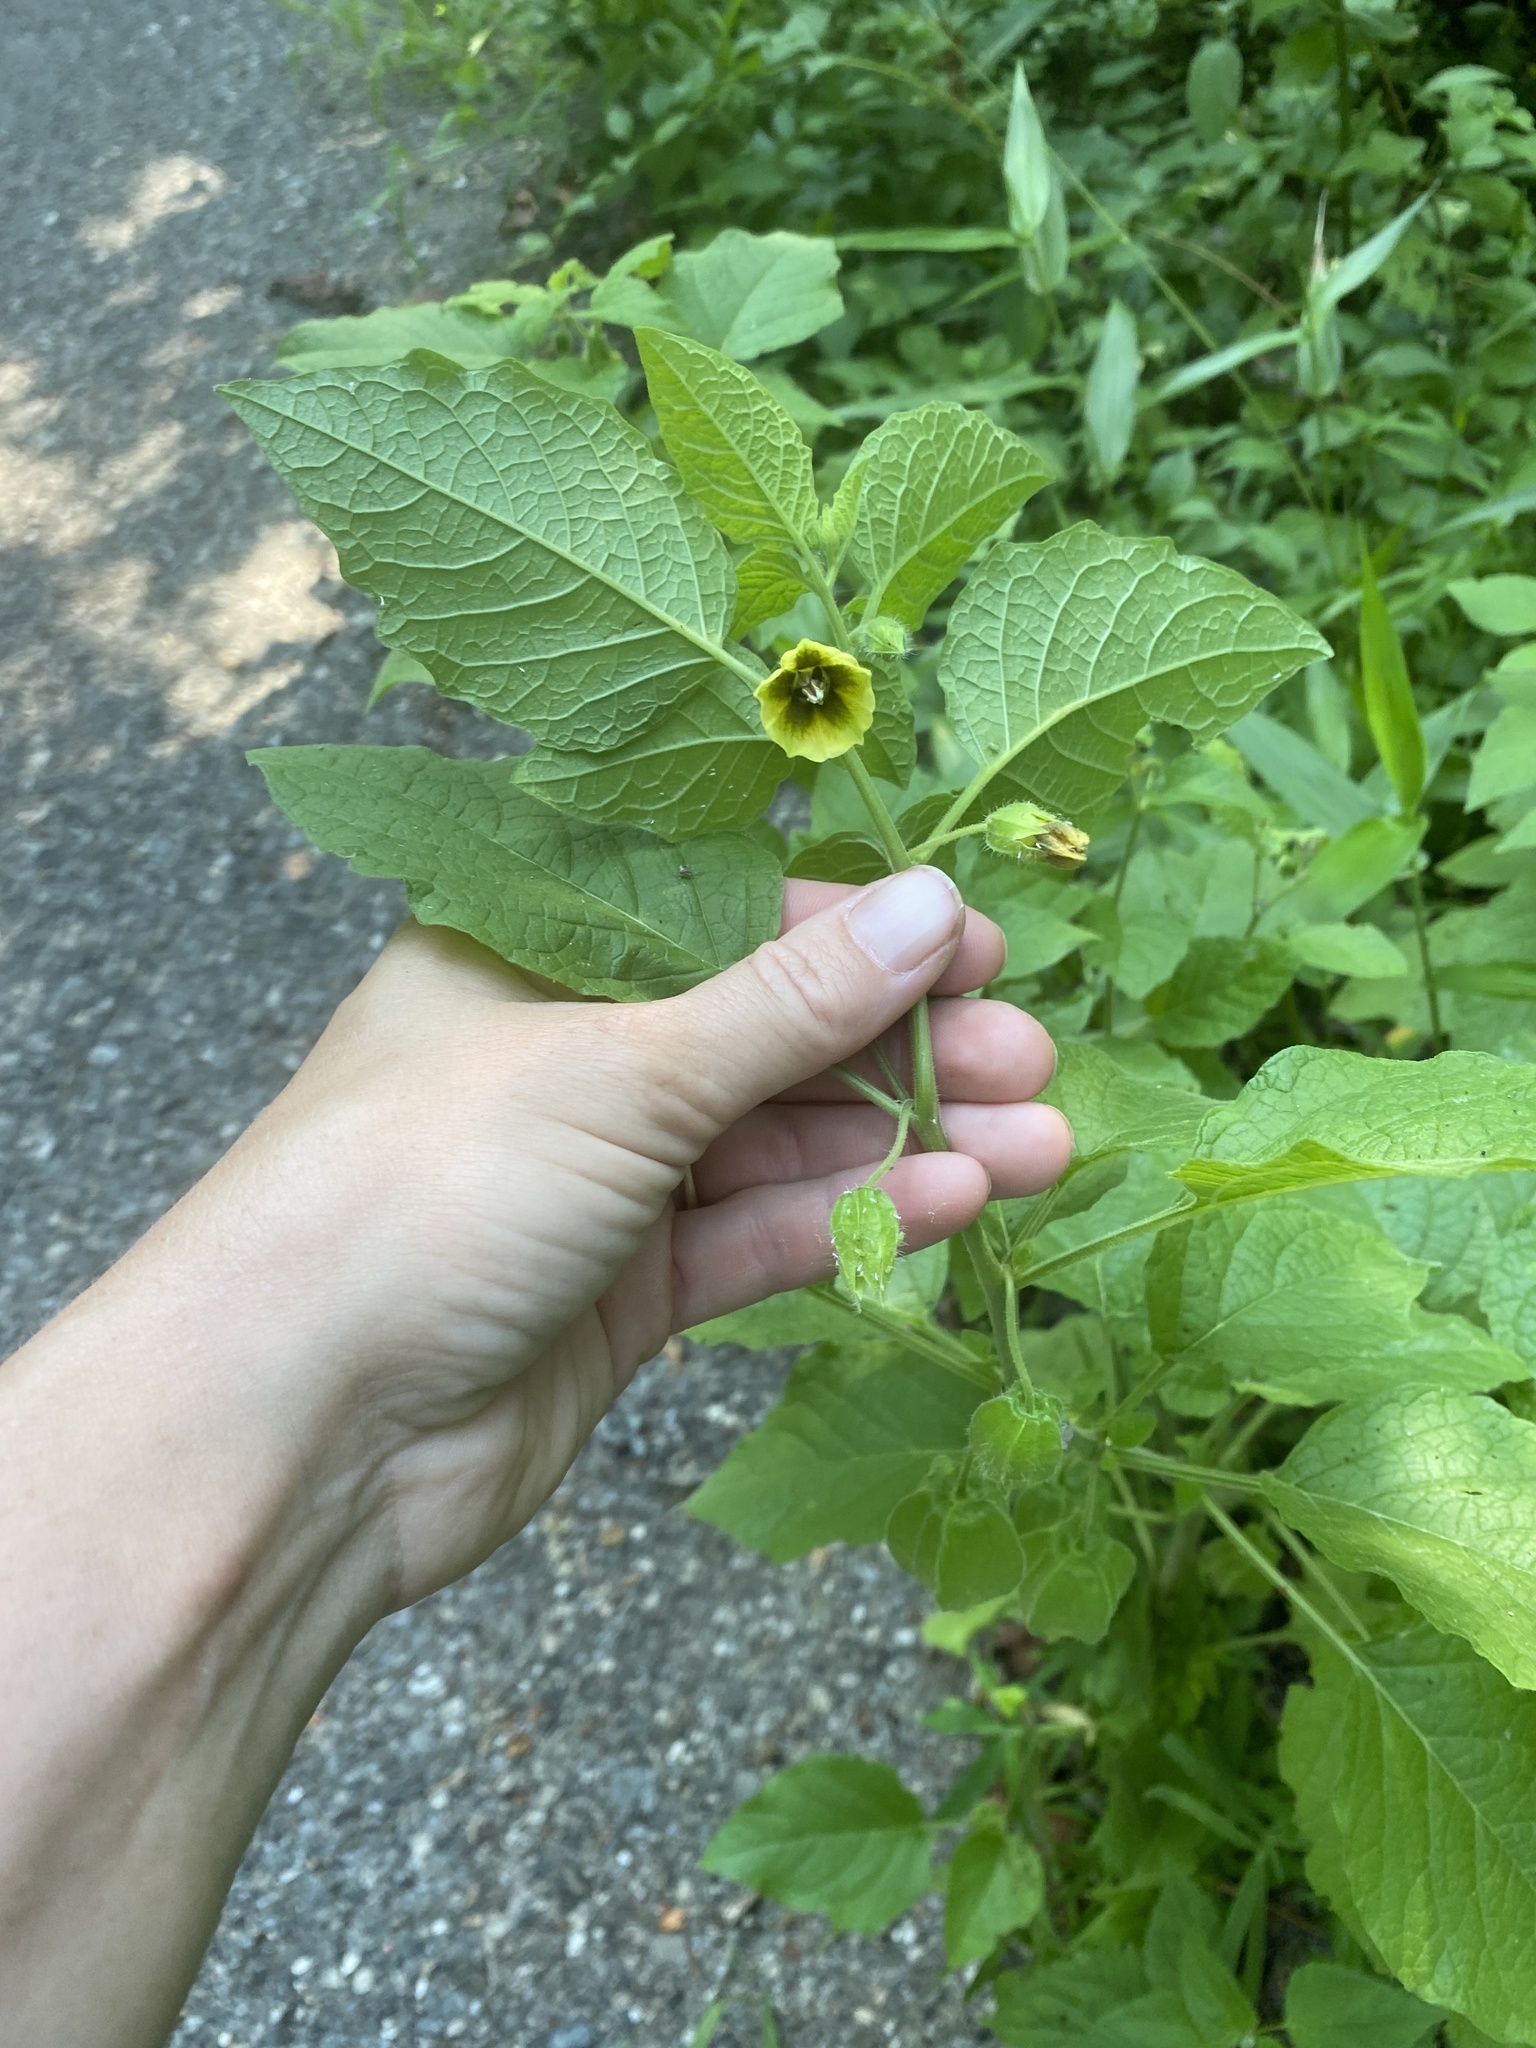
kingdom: Plantae
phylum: Tracheophyta
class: Magnoliopsida
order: Solanales
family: Solanaceae
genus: Physalis
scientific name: Physalis heterophylla
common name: Clammy ground-cherry
